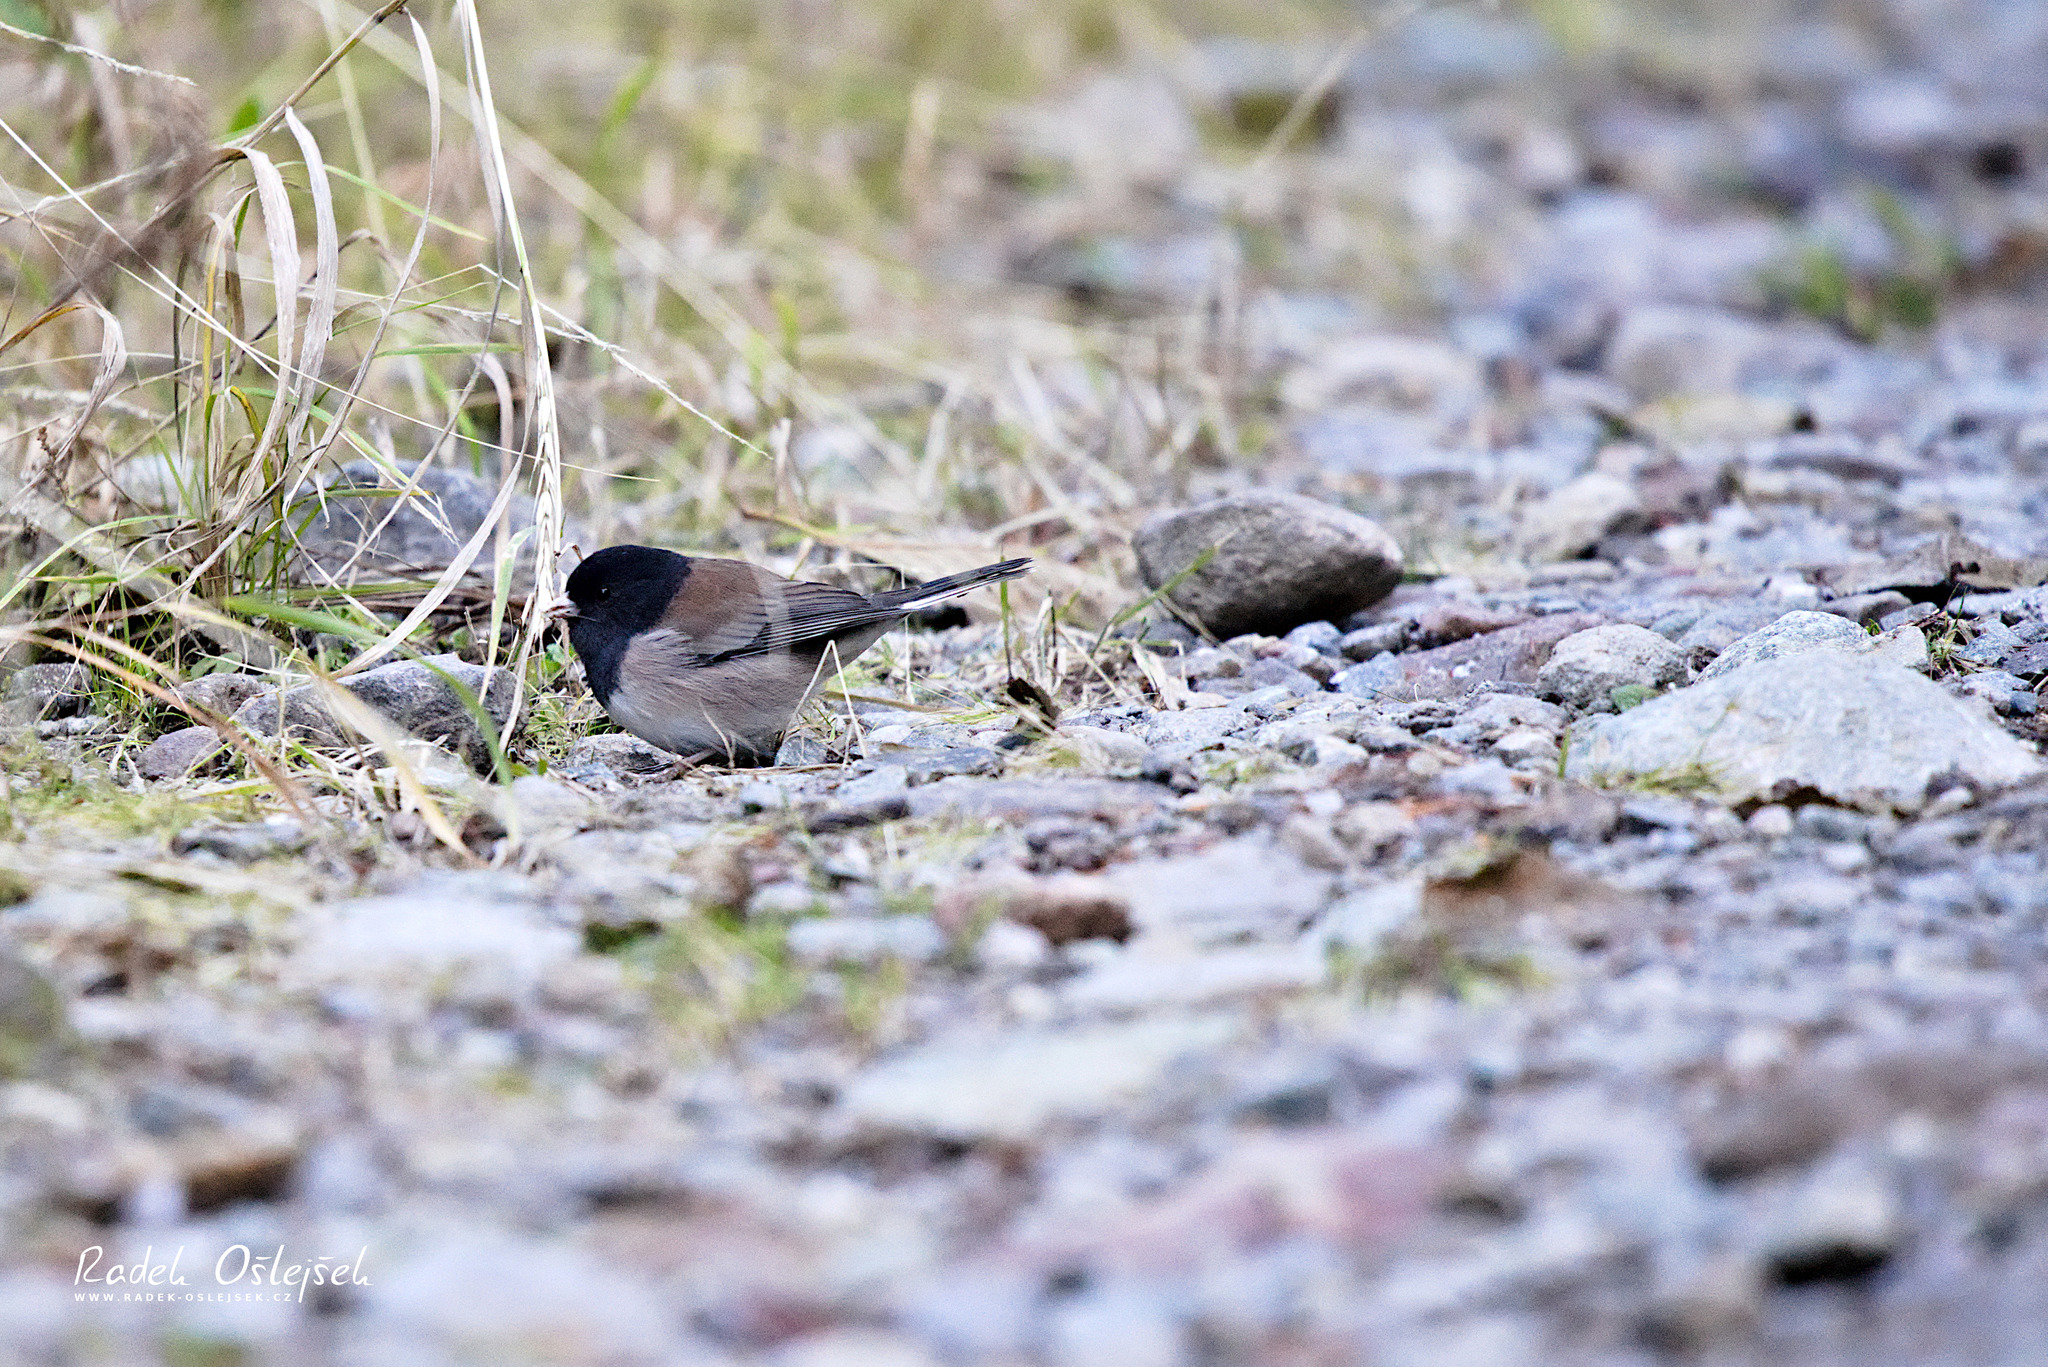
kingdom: Animalia
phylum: Chordata
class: Aves
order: Passeriformes
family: Passerellidae
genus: Junco
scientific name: Junco hyemalis
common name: Dark-eyed junco
